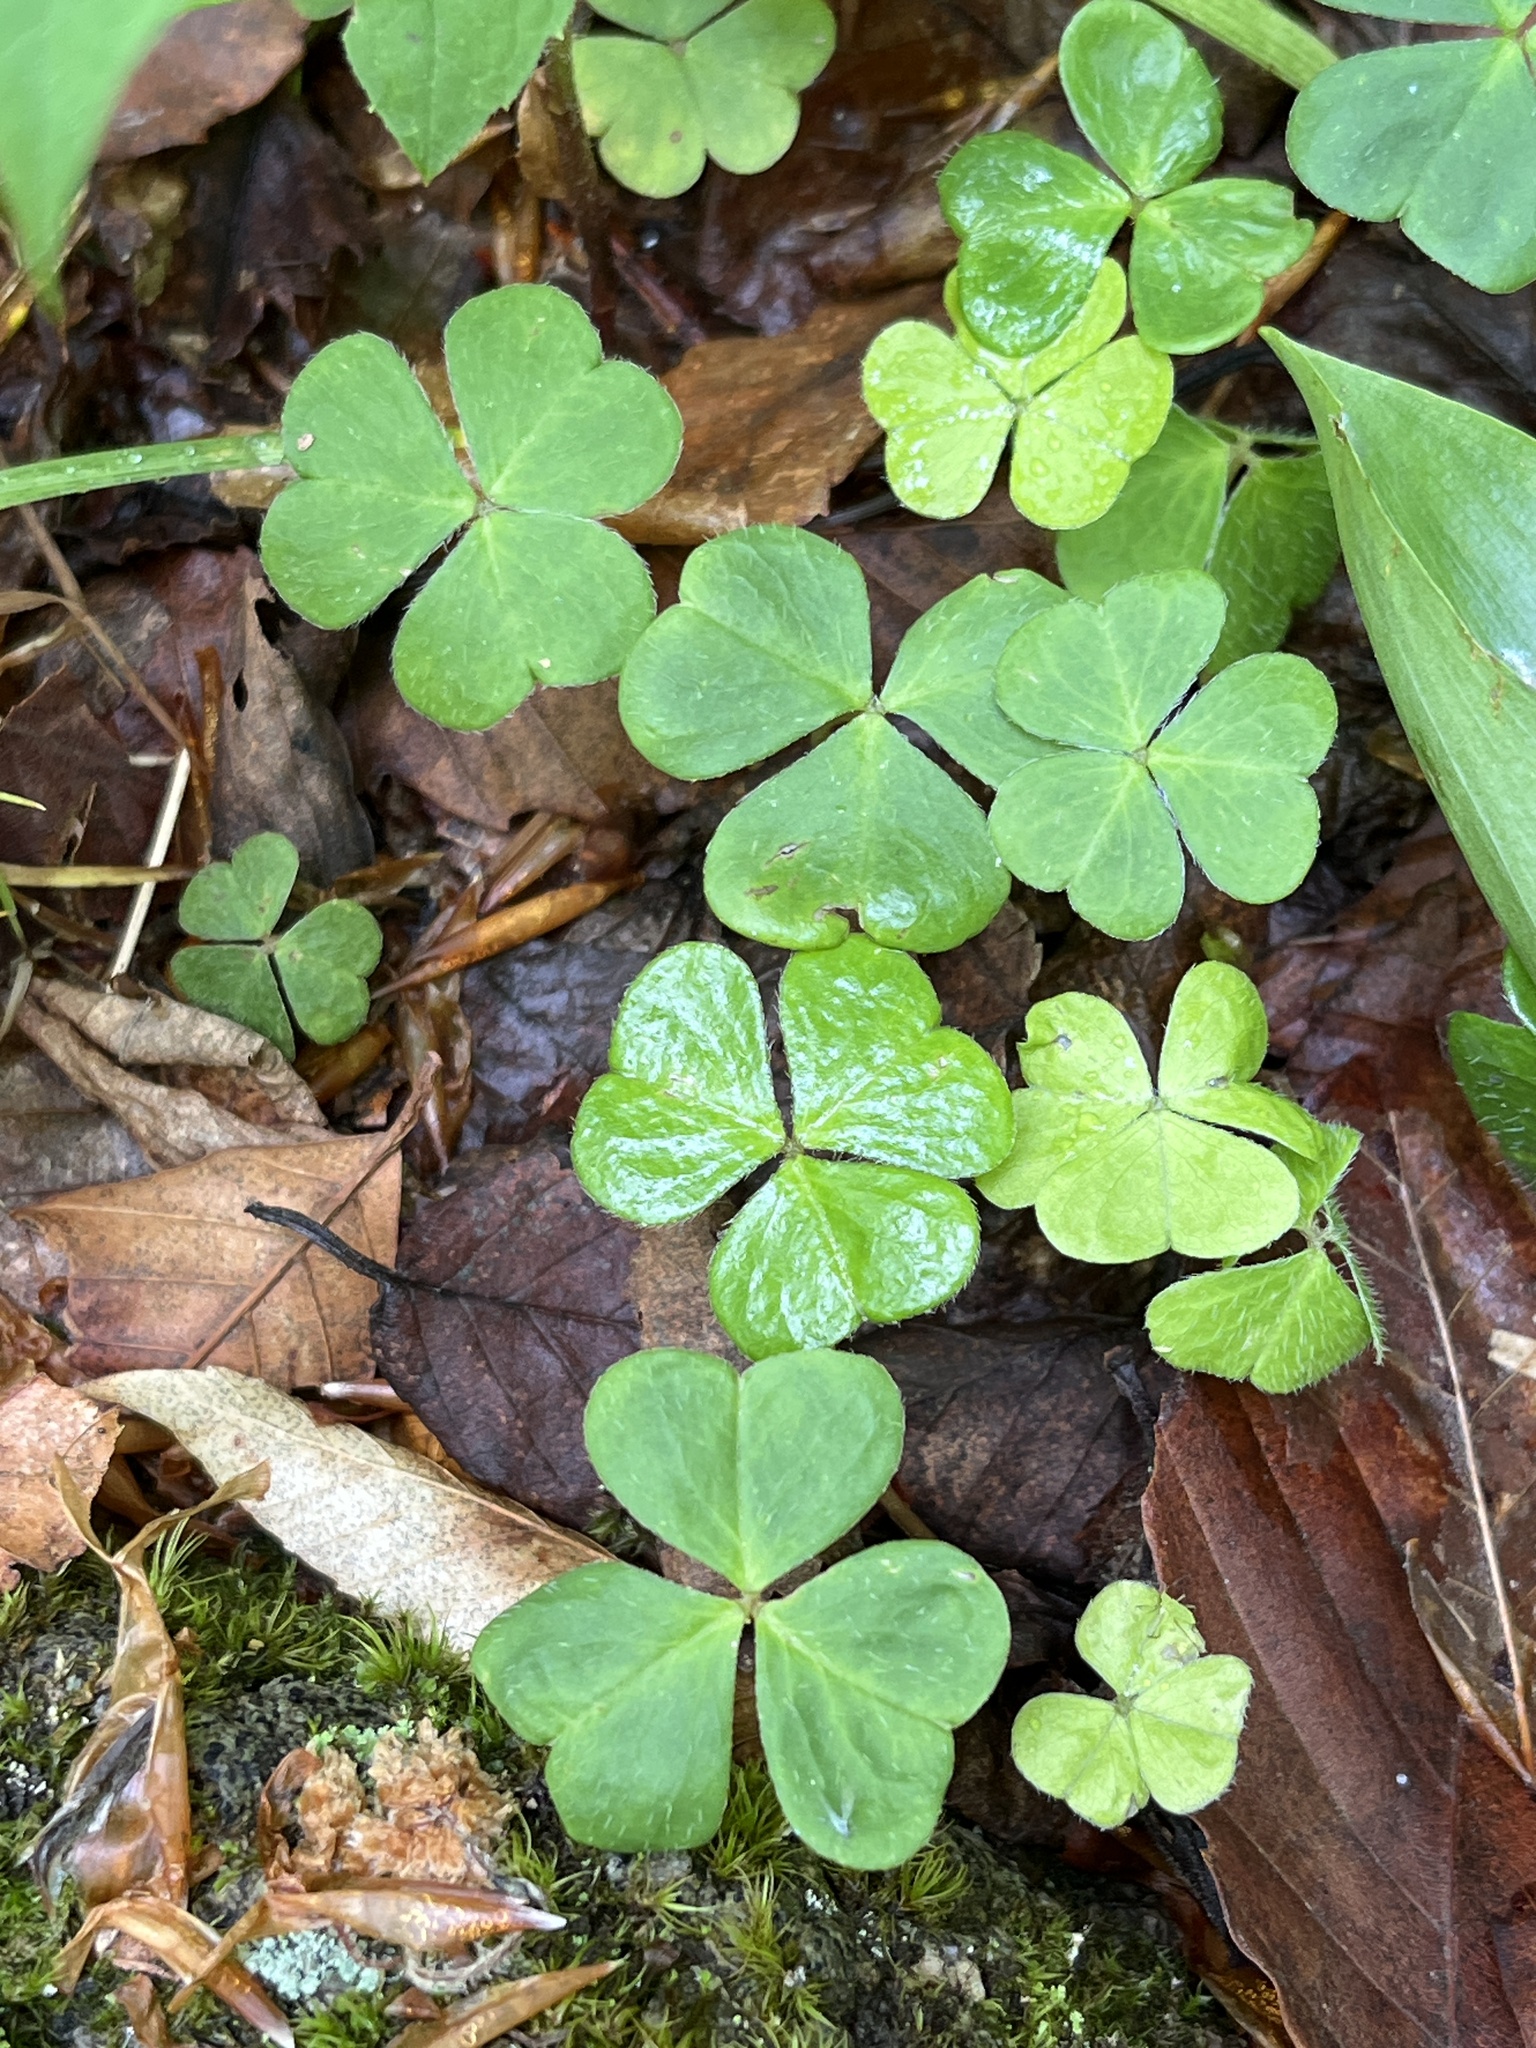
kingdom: Plantae
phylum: Tracheophyta
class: Magnoliopsida
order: Oxalidales
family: Oxalidaceae
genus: Oxalis
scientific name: Oxalis montana
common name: American wood-sorrel
